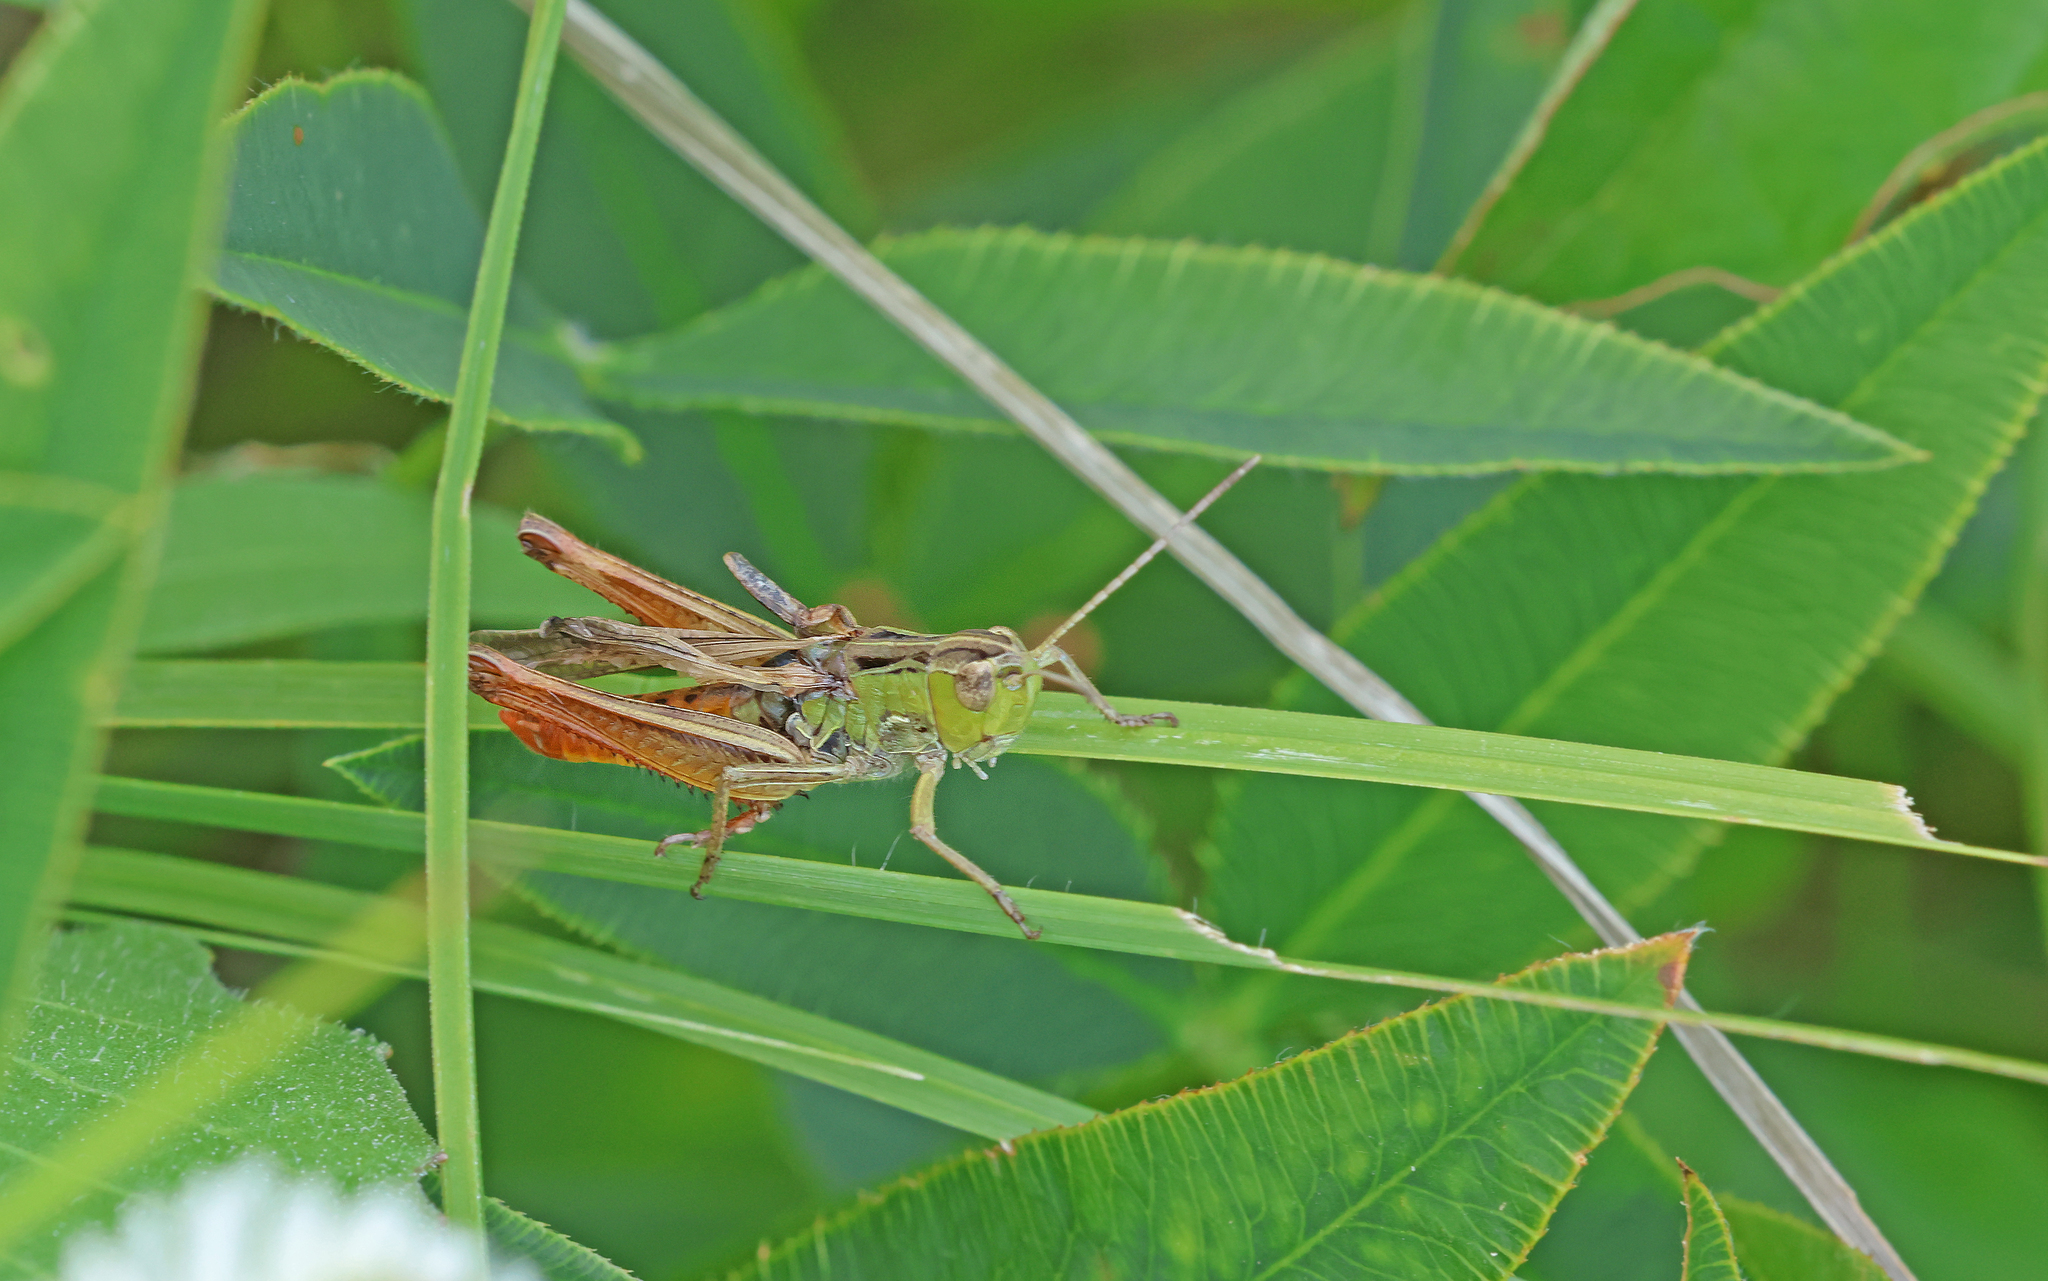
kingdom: Animalia
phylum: Arthropoda
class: Insecta
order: Orthoptera
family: Acrididae
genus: Stenobothrus
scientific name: Stenobothrus lineatus
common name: Stripe-winged grasshopper
